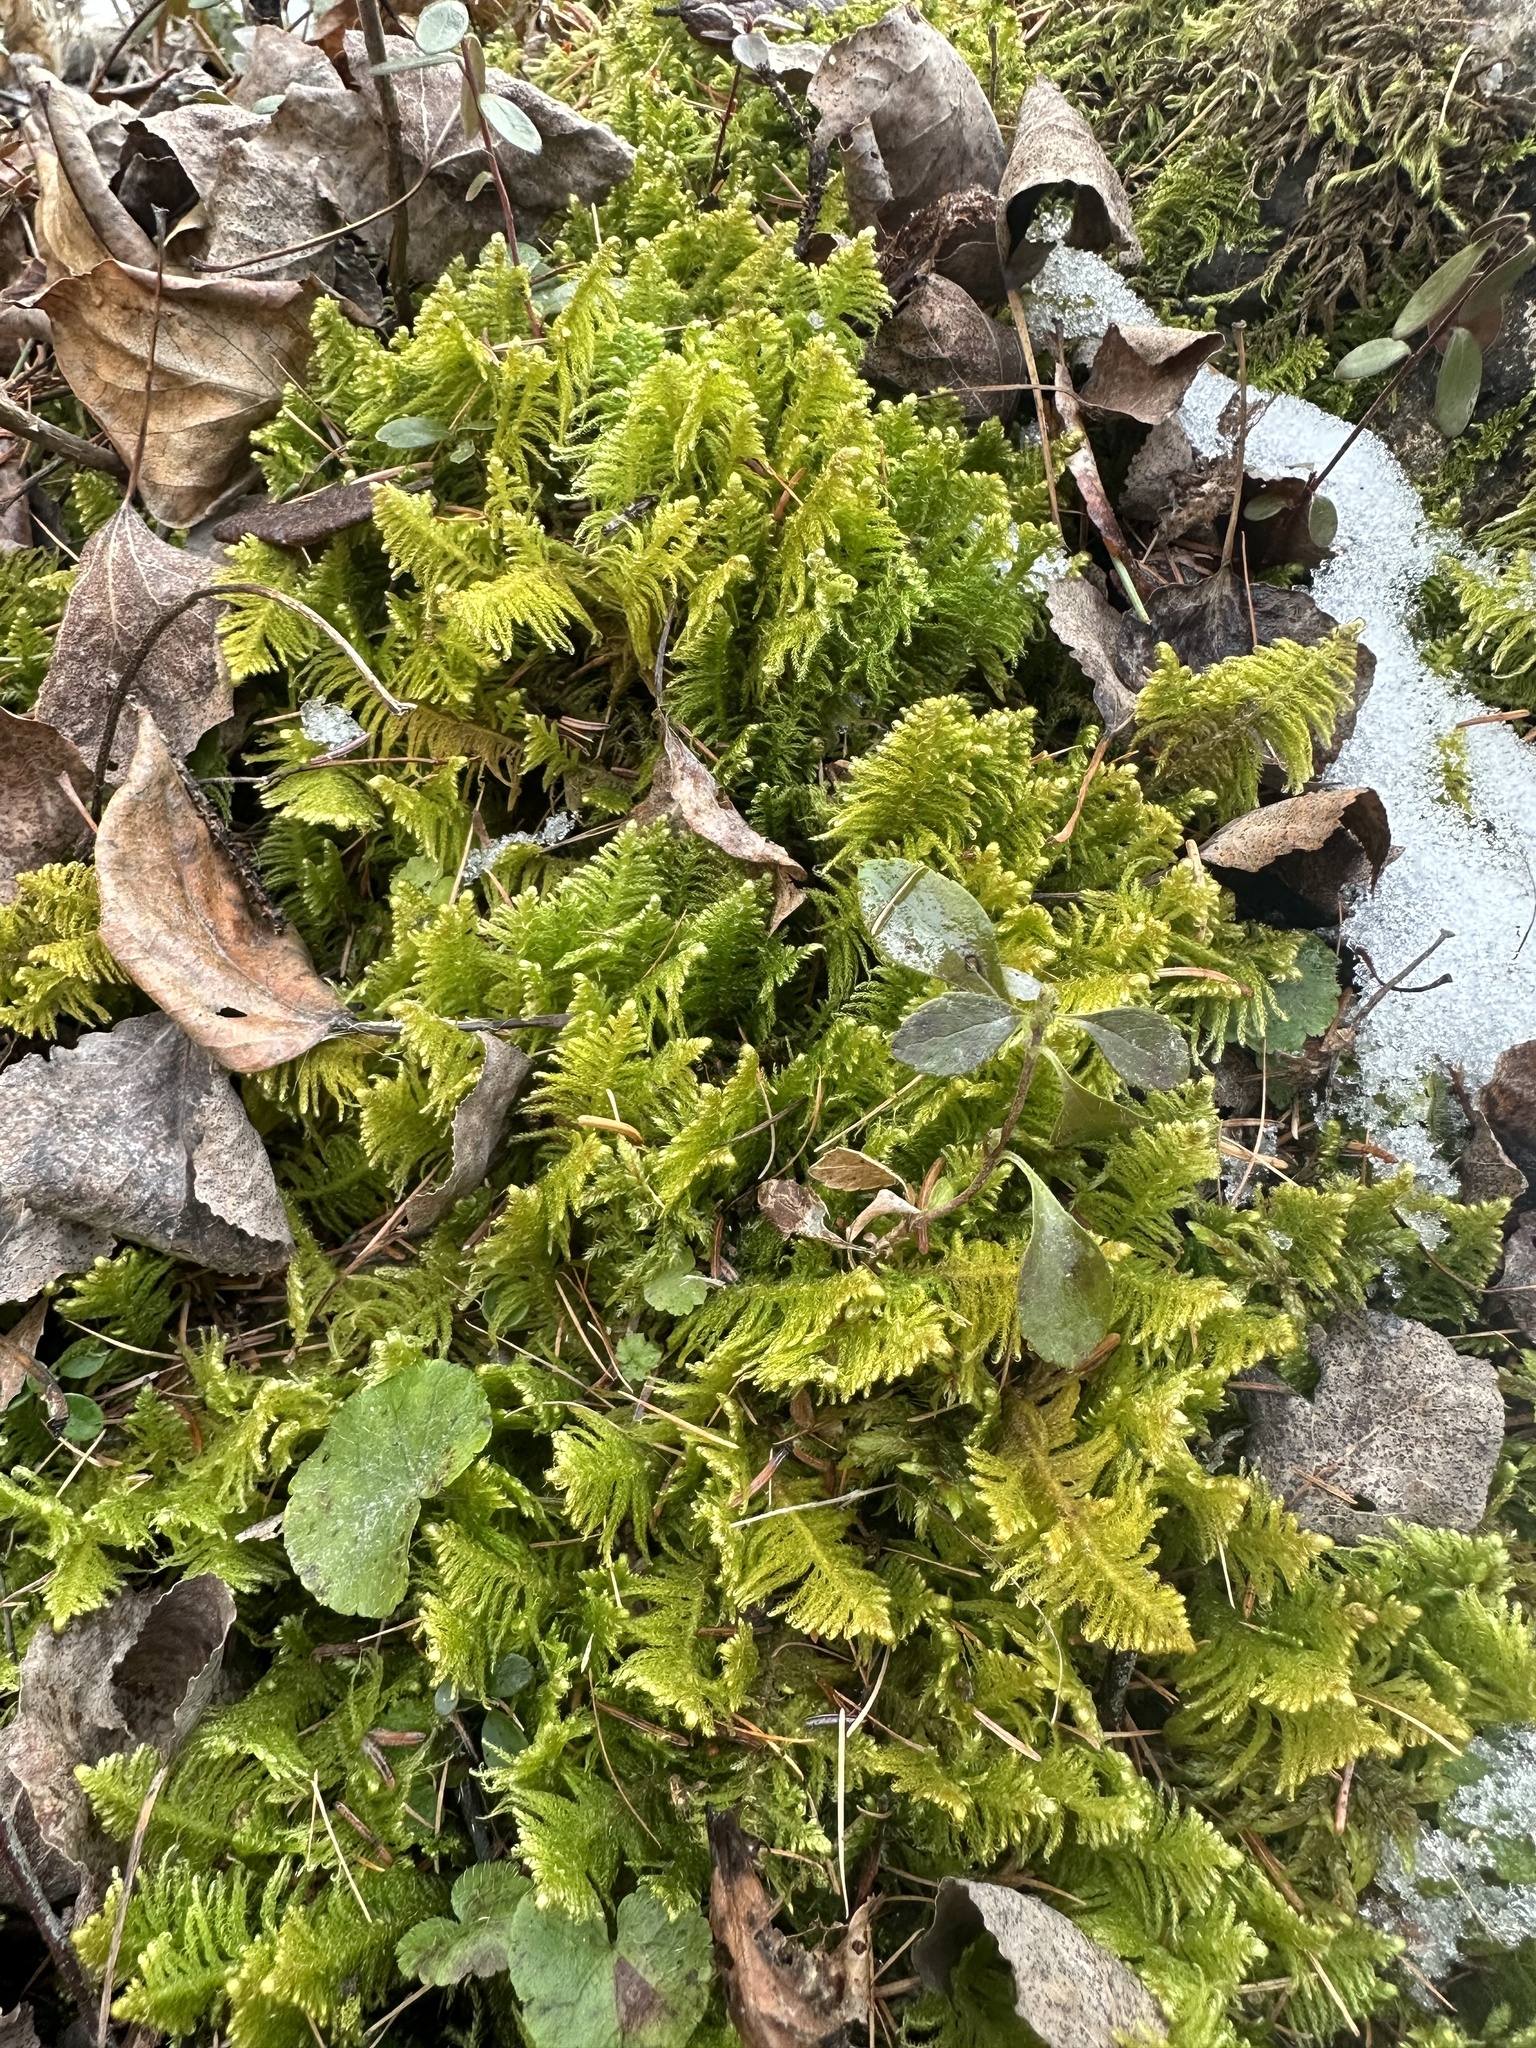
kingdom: Plantae
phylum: Bryophyta
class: Bryopsida
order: Hypnales
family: Pylaisiaceae
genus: Ptilium
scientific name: Ptilium crista-castrensis
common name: Knight's plume moss
